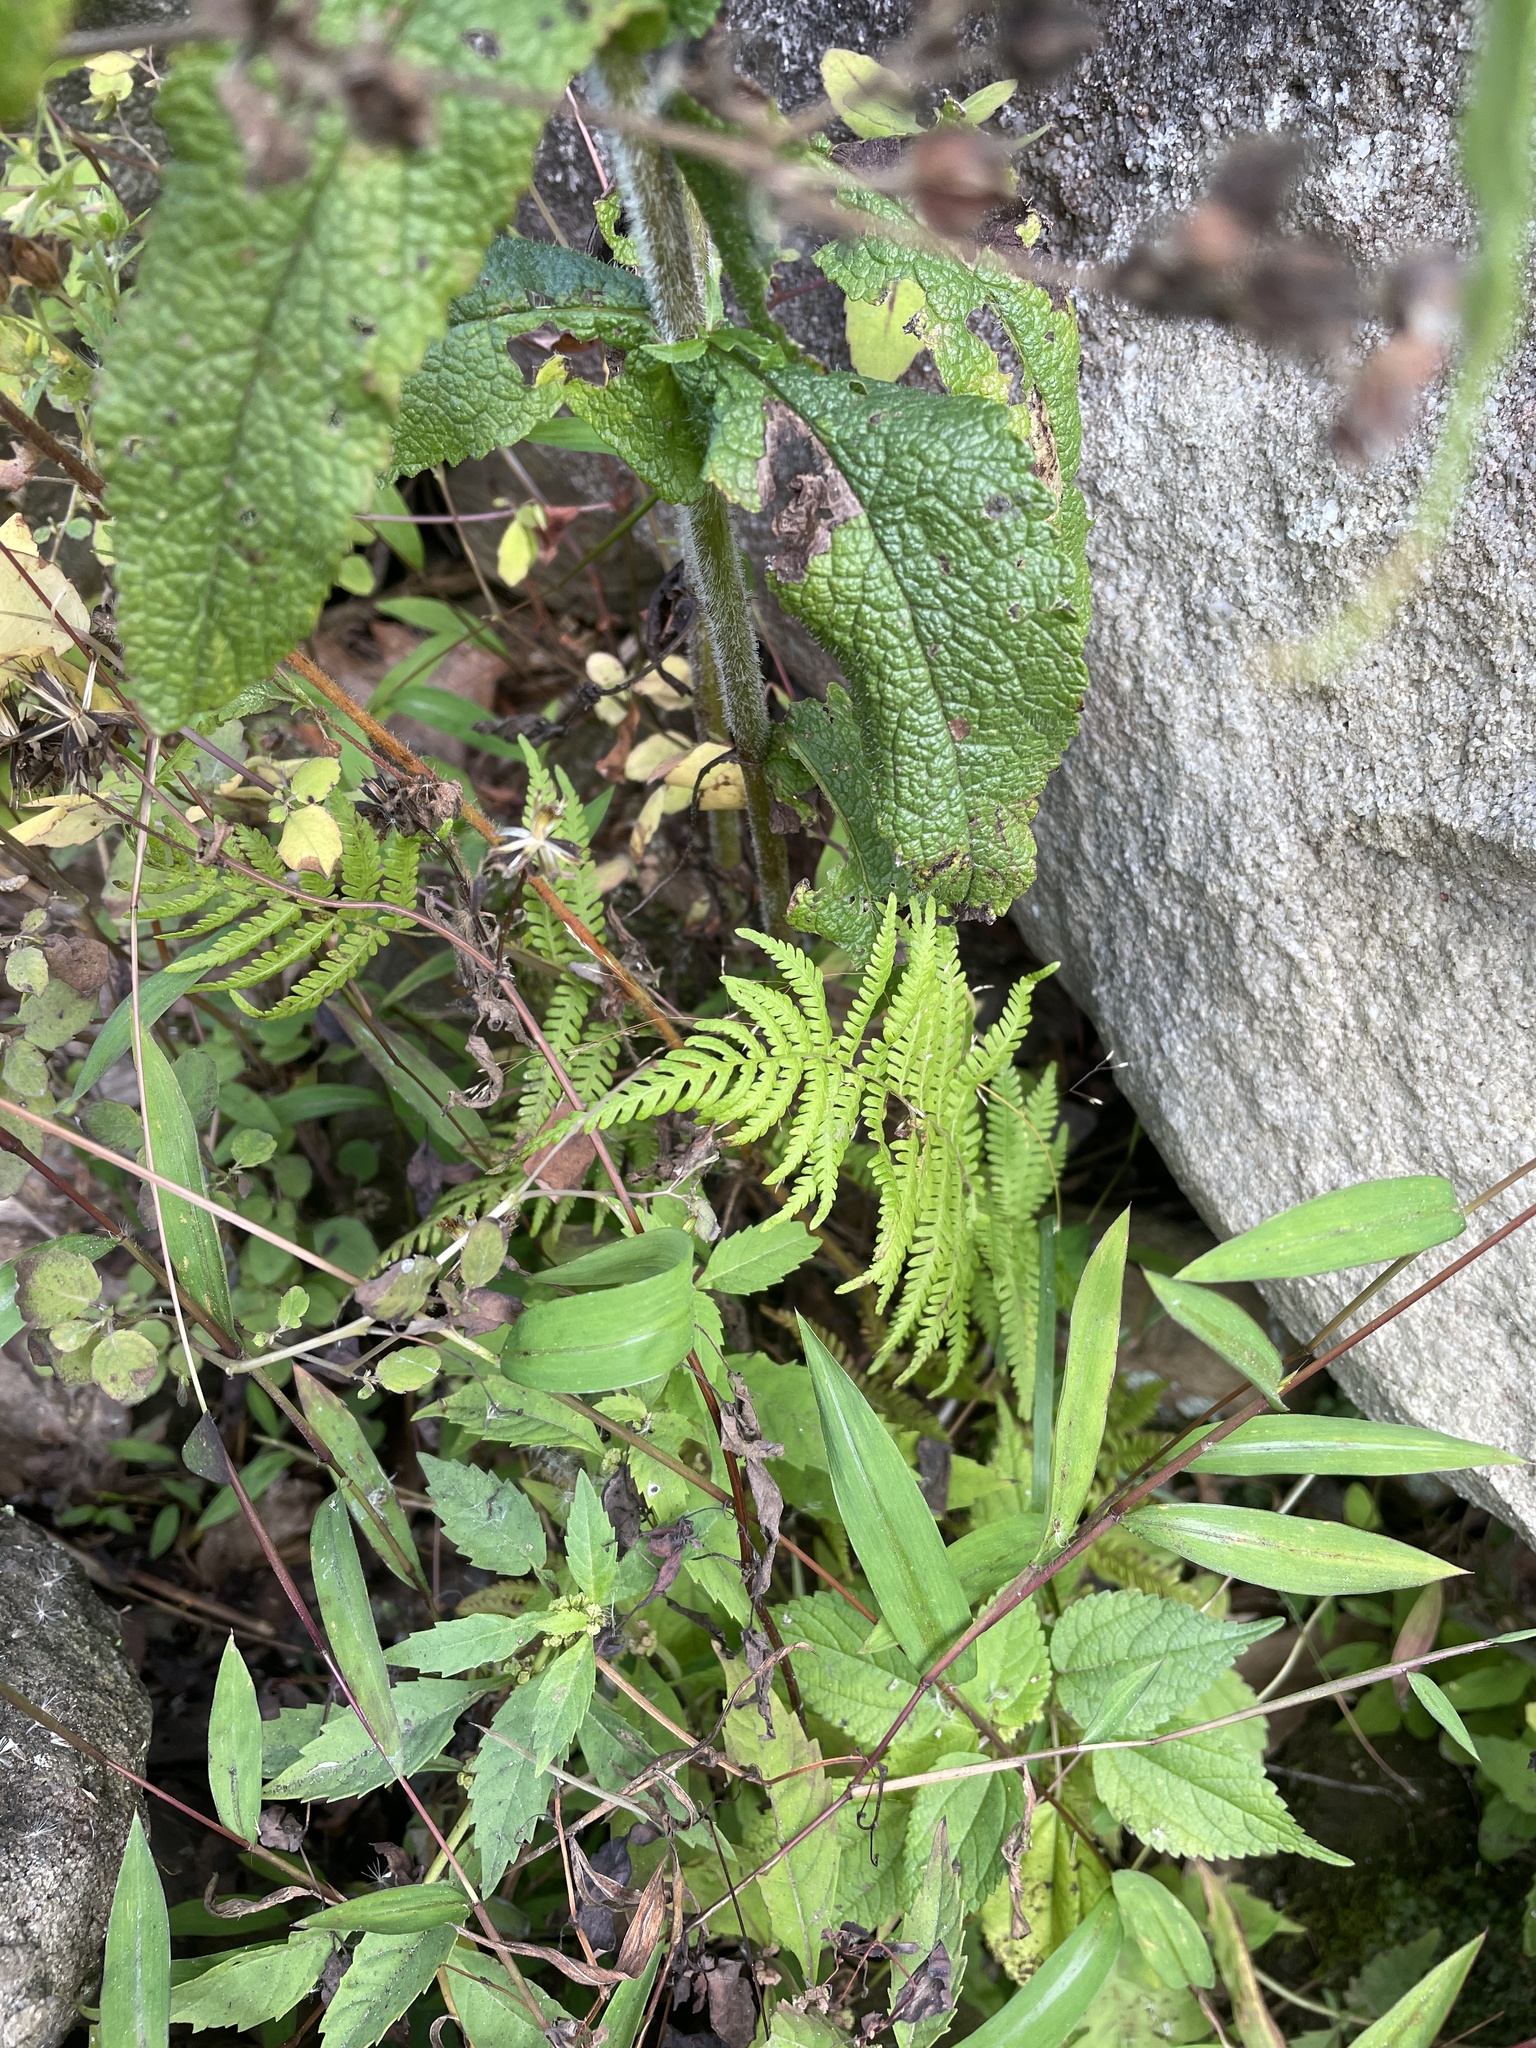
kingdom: Plantae
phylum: Tracheophyta
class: Polypodiopsida
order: Polypodiales
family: Thelypteridaceae
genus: Amauropelta
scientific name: Amauropelta noveboracensis
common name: New york fern
